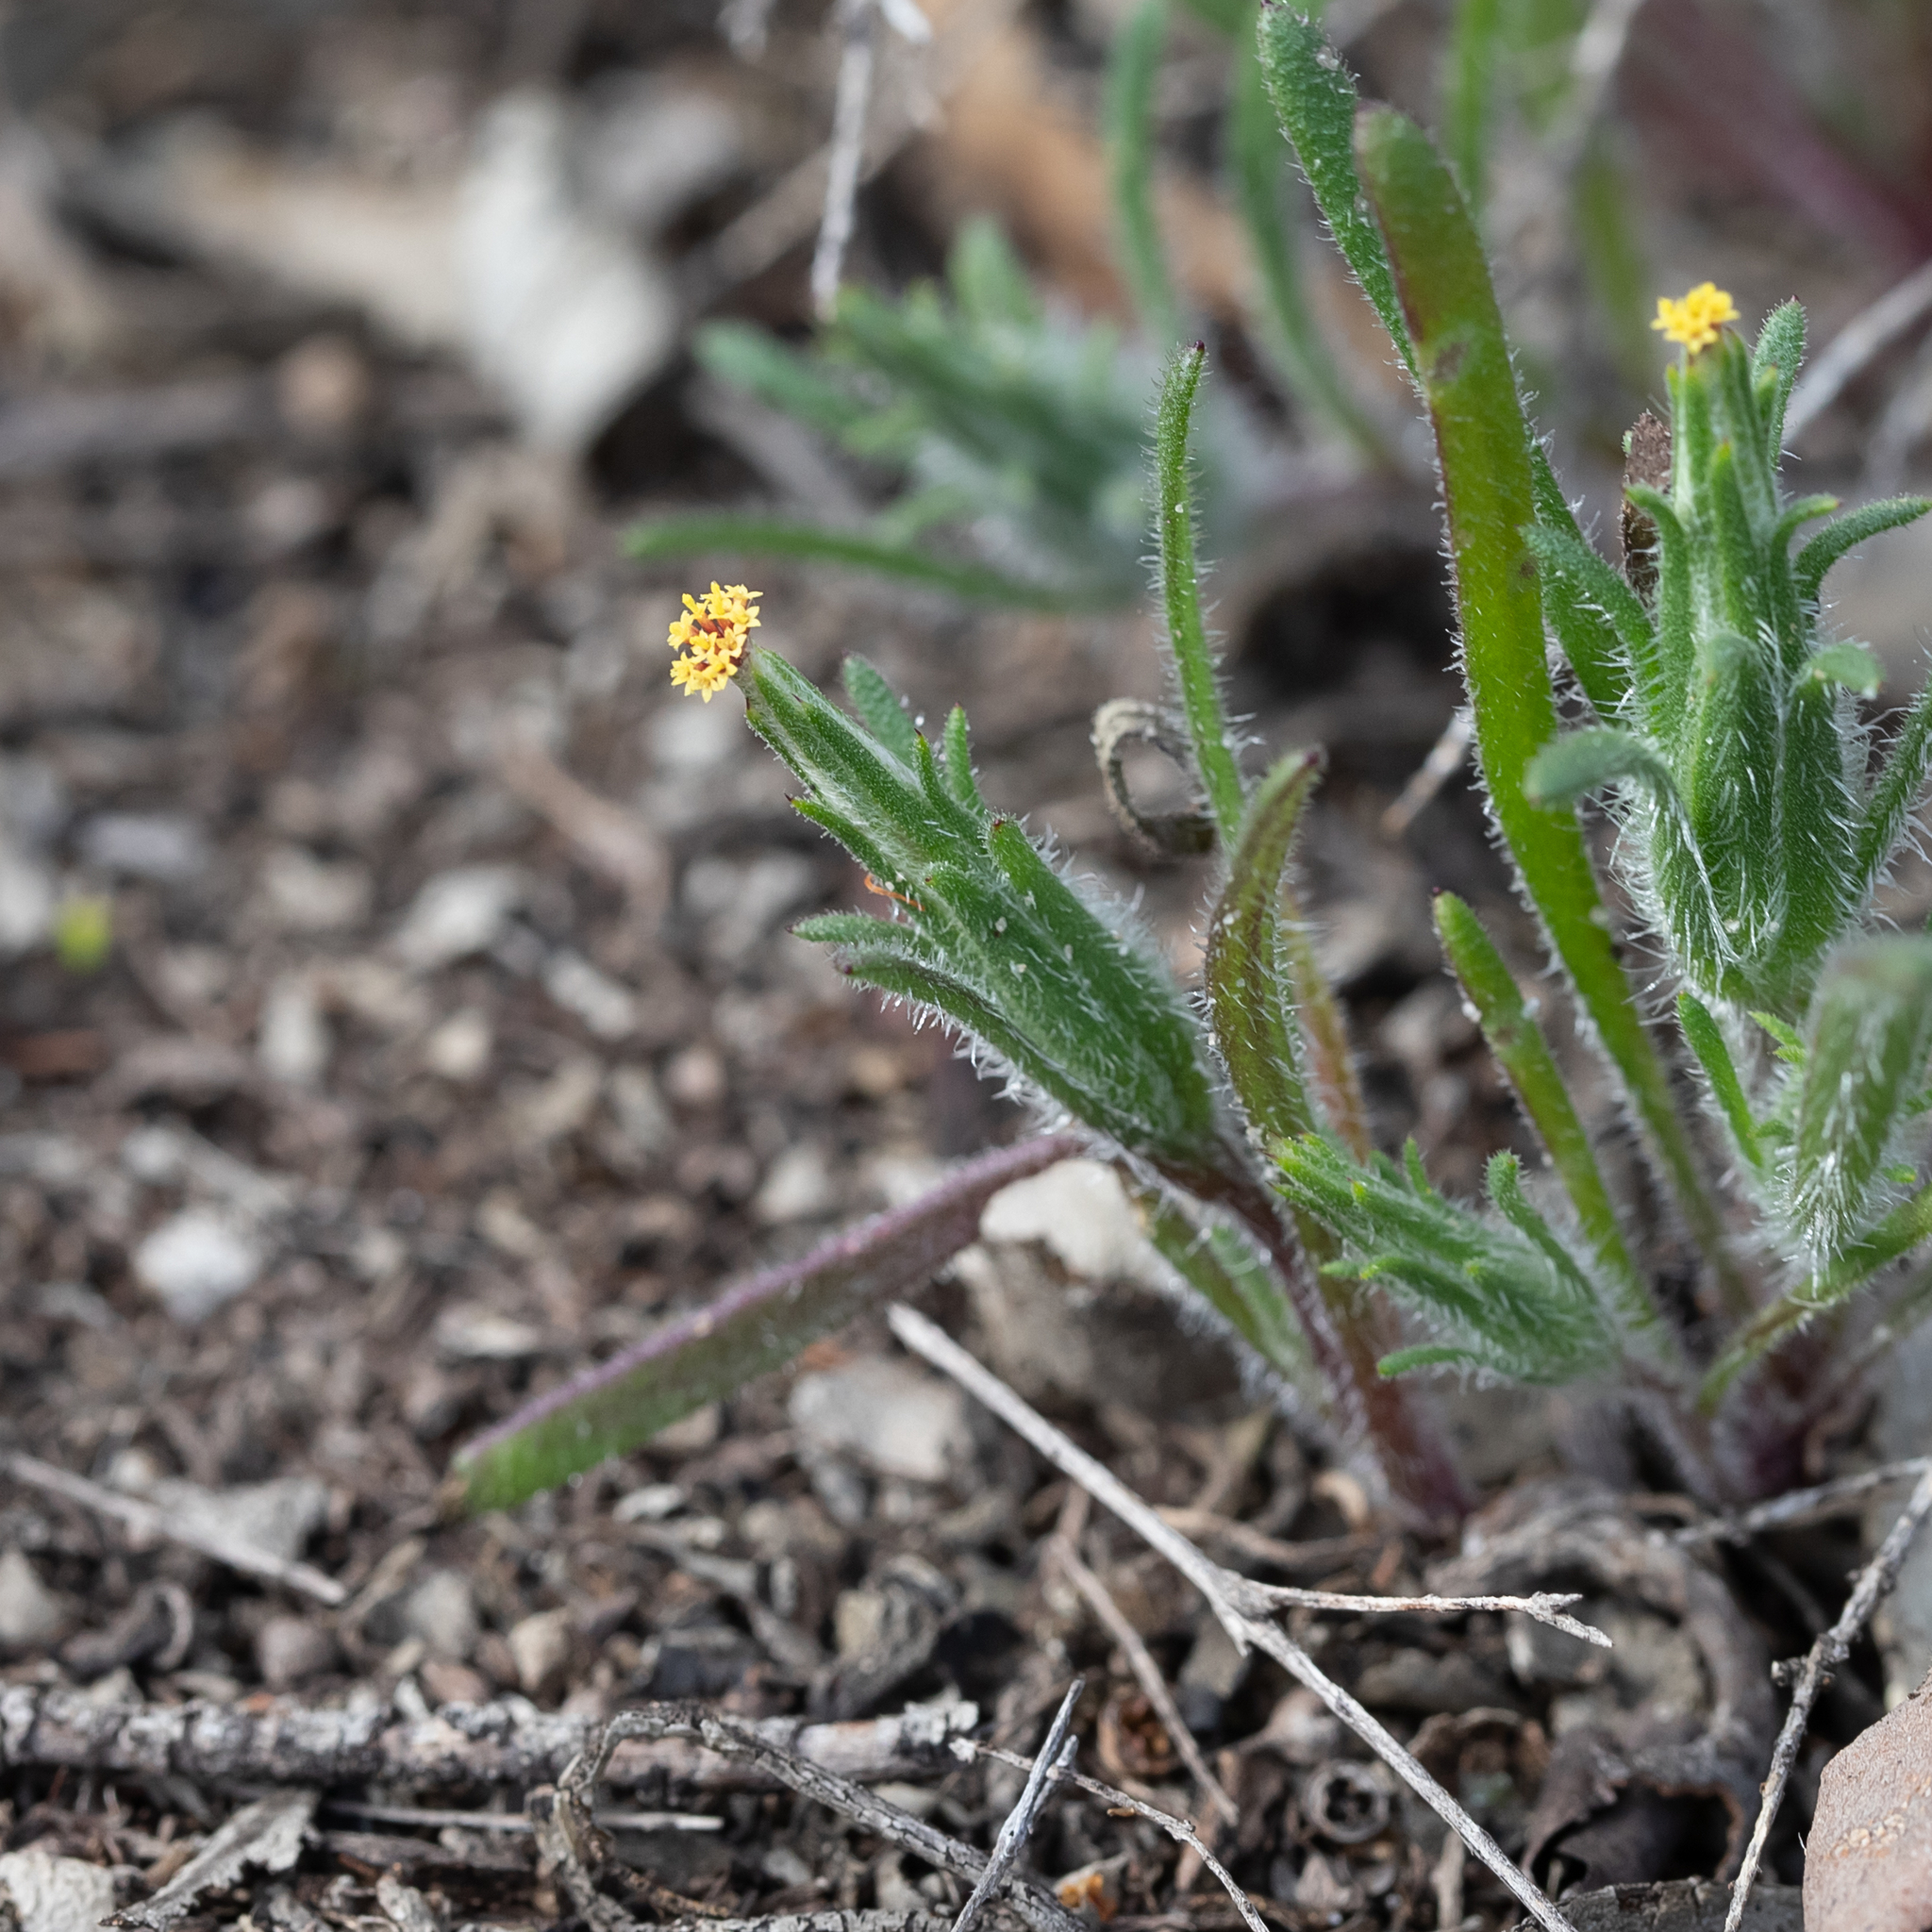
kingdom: Plantae
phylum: Tracheophyta
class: Magnoliopsida
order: Asterales
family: Asteraceae
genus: Podotheca
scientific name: Podotheca angustifolia
